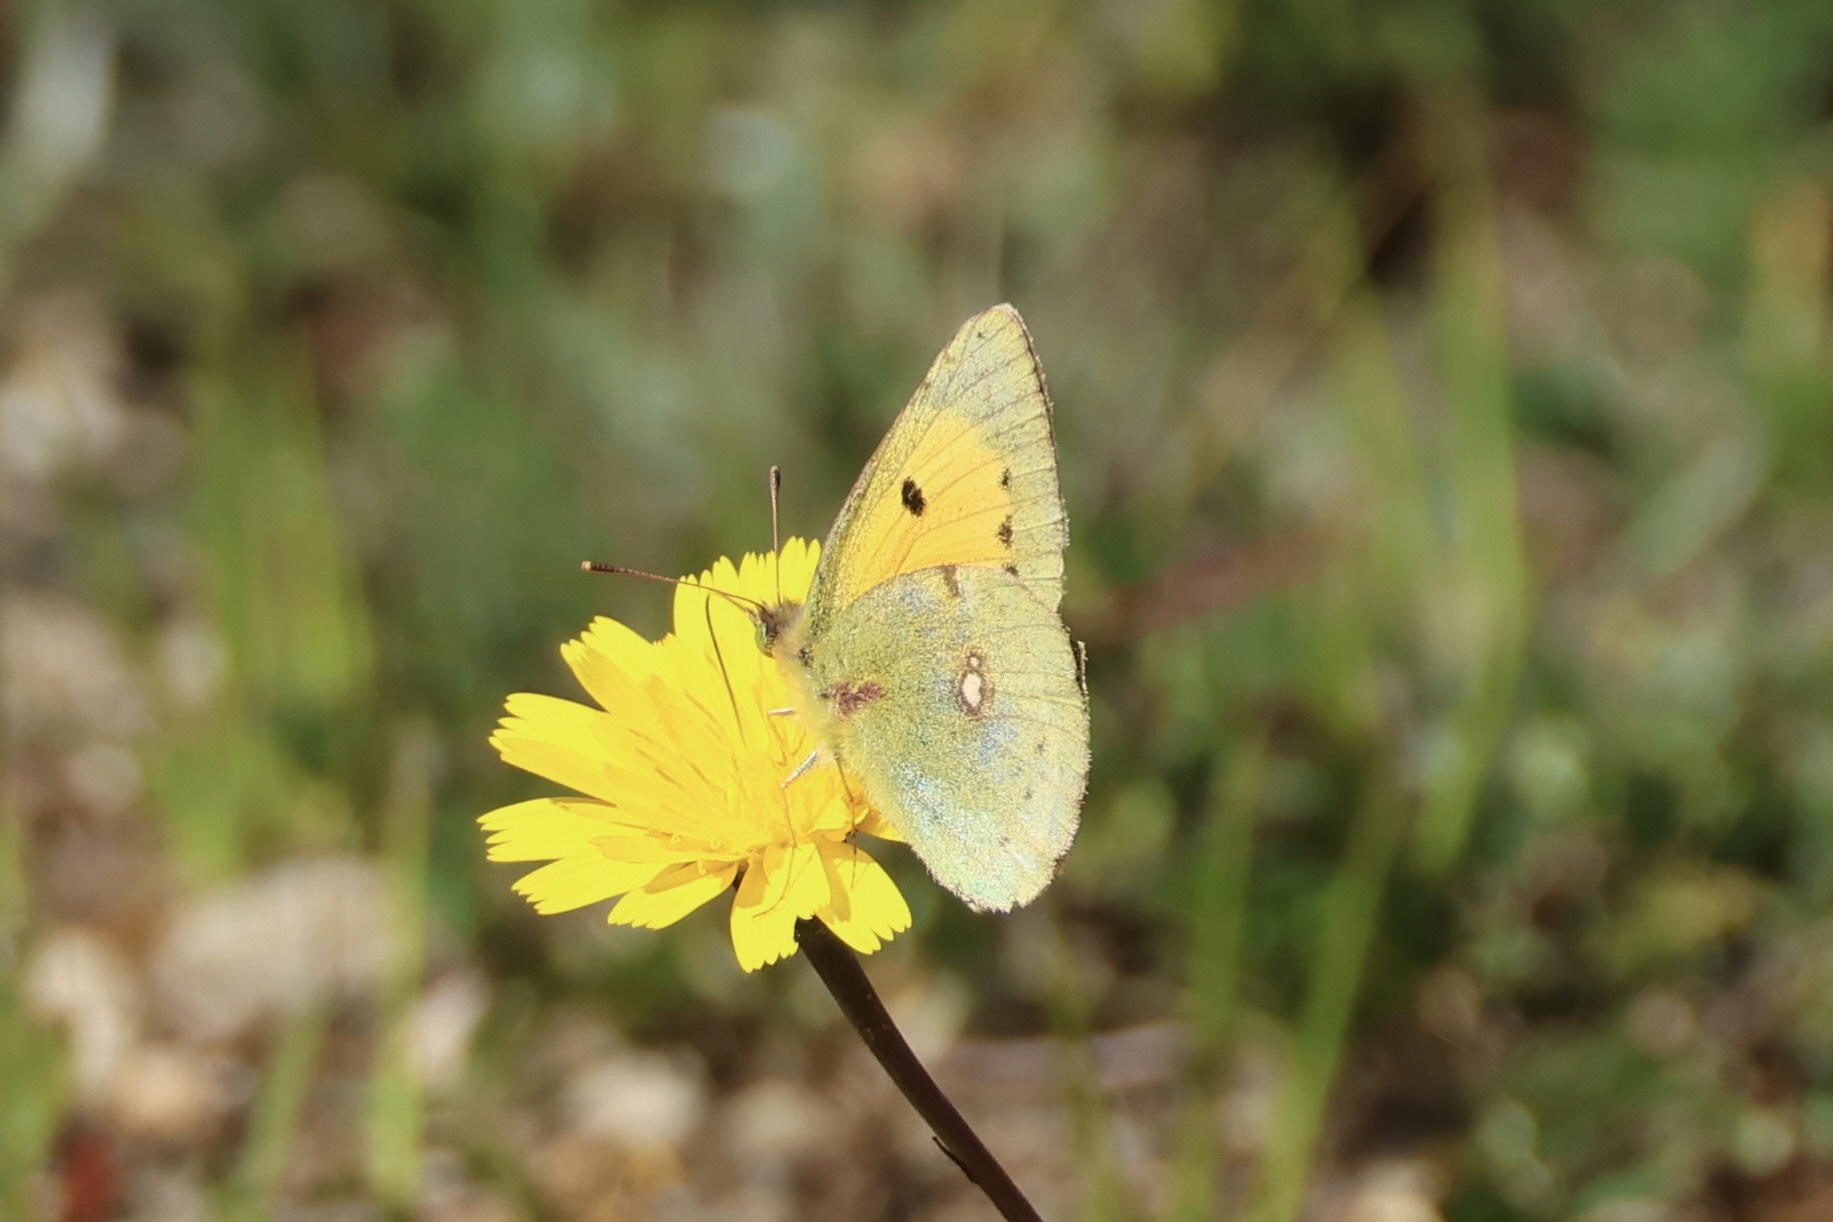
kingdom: Animalia
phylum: Arthropoda
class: Insecta
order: Lepidoptera
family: Pieridae
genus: Colias
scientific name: Colias croceus
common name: Clouded yellow
